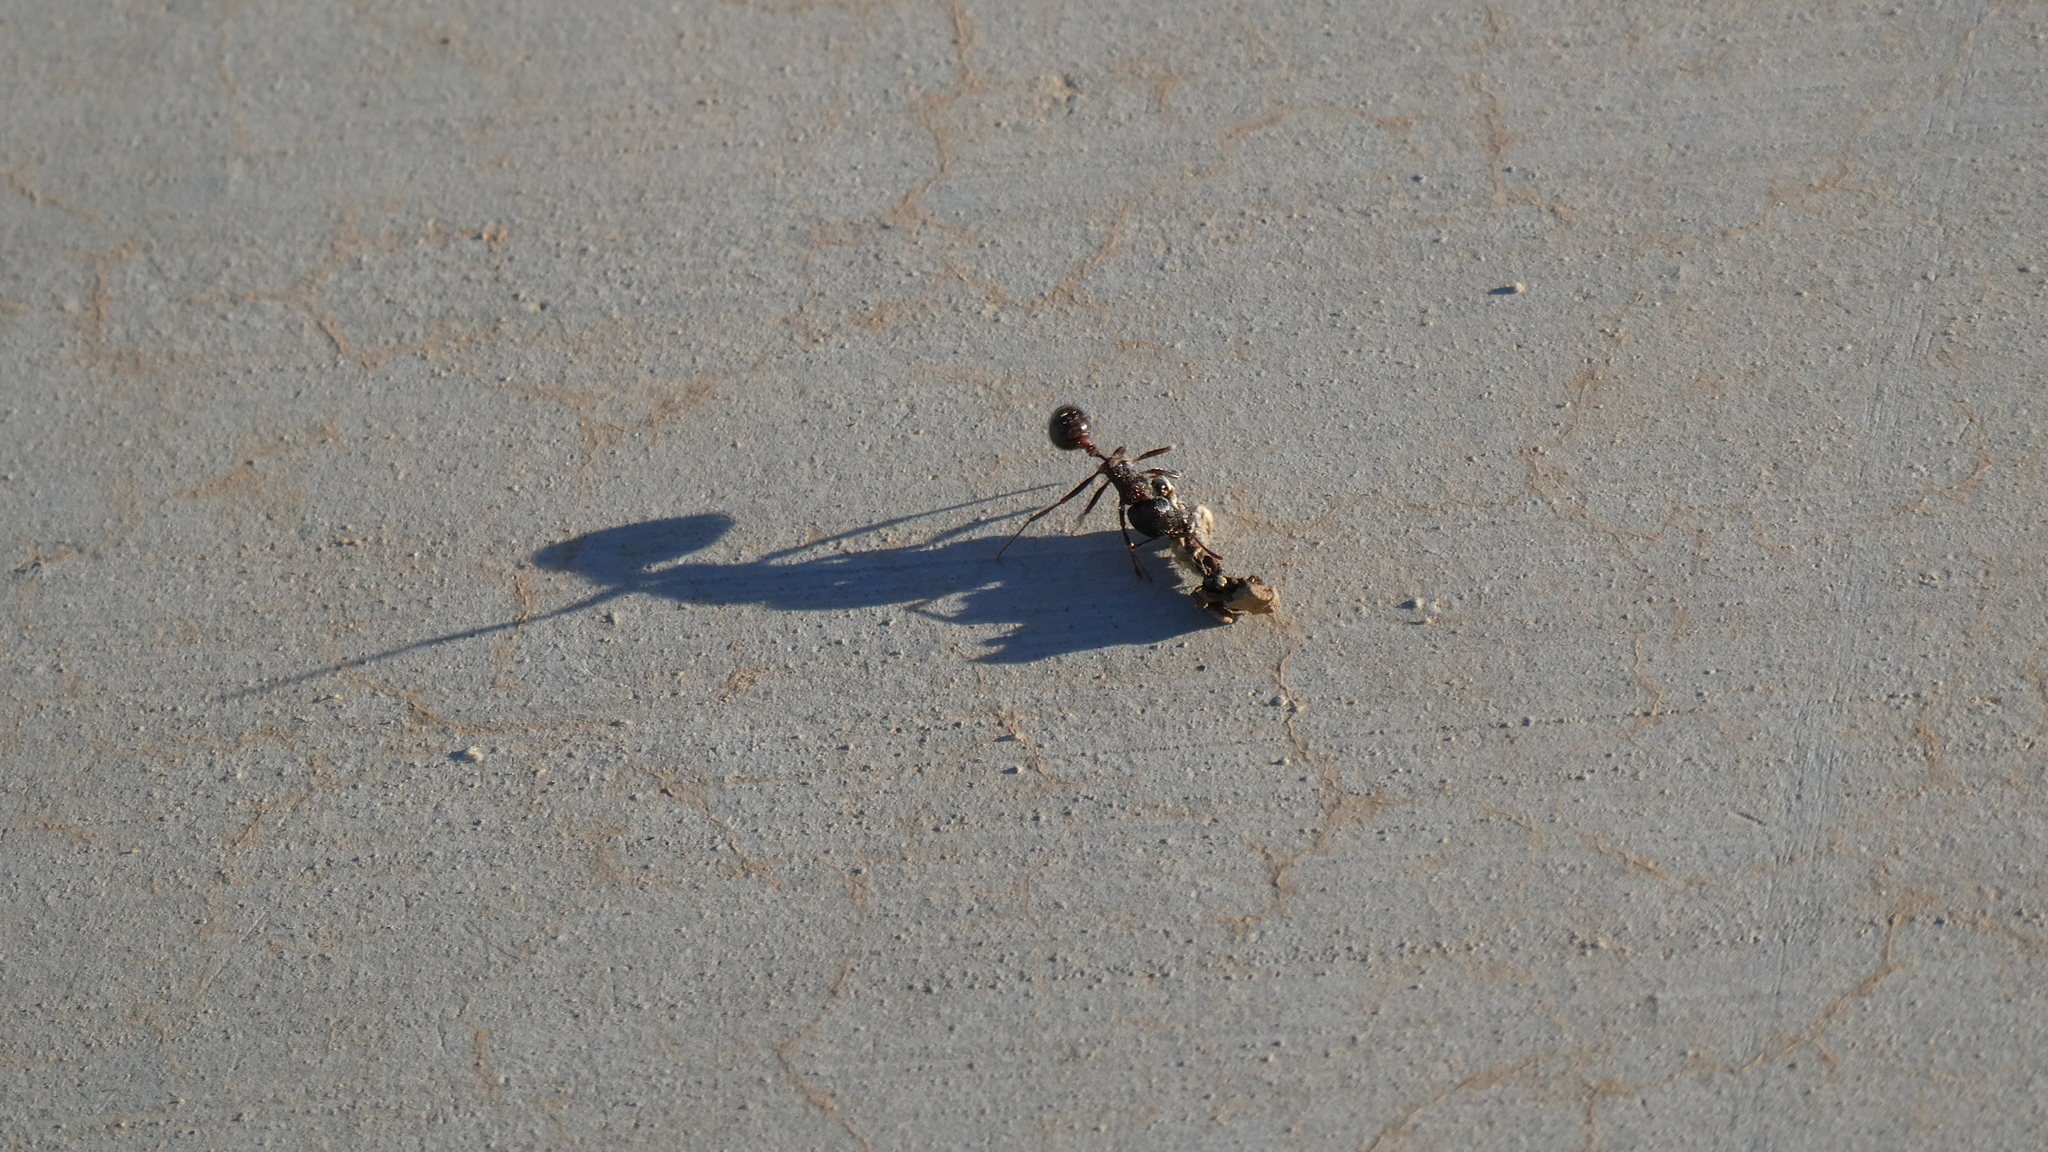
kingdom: Animalia
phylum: Arthropoda
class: Insecta
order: Hymenoptera
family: Formicidae
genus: Pogonomyrmex
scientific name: Pogonomyrmex rugosus
